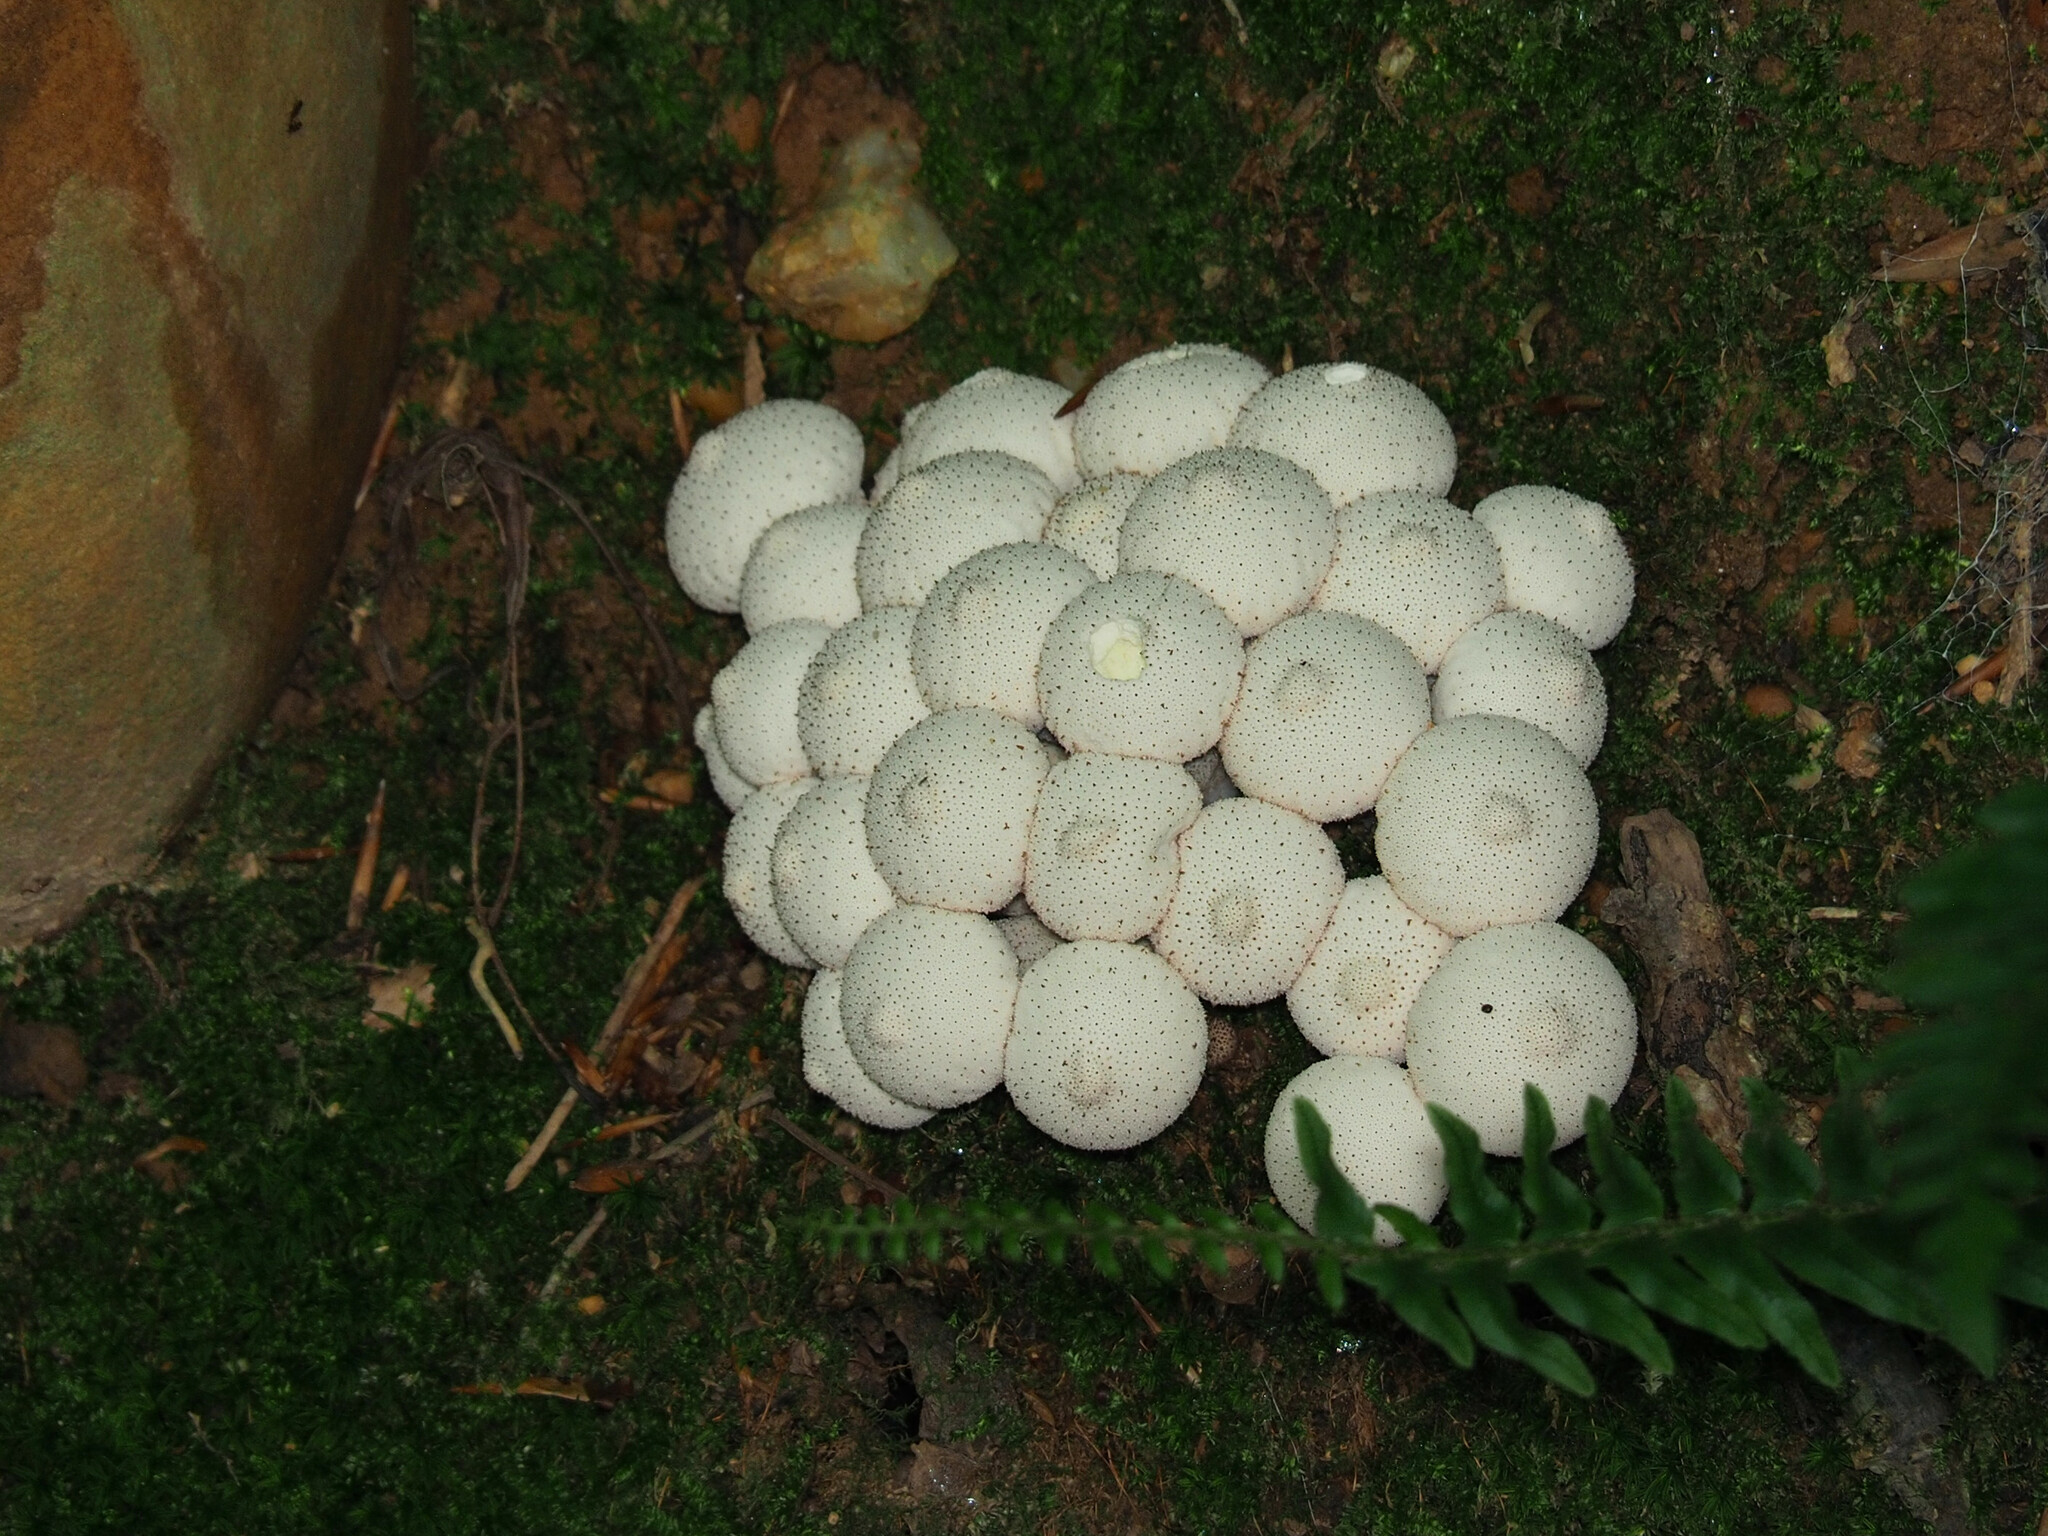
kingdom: Fungi
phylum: Basidiomycota
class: Agaricomycetes
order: Agaricales
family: Lycoperdaceae
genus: Lycoperdon
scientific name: Lycoperdon perlatum
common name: Common puffball
